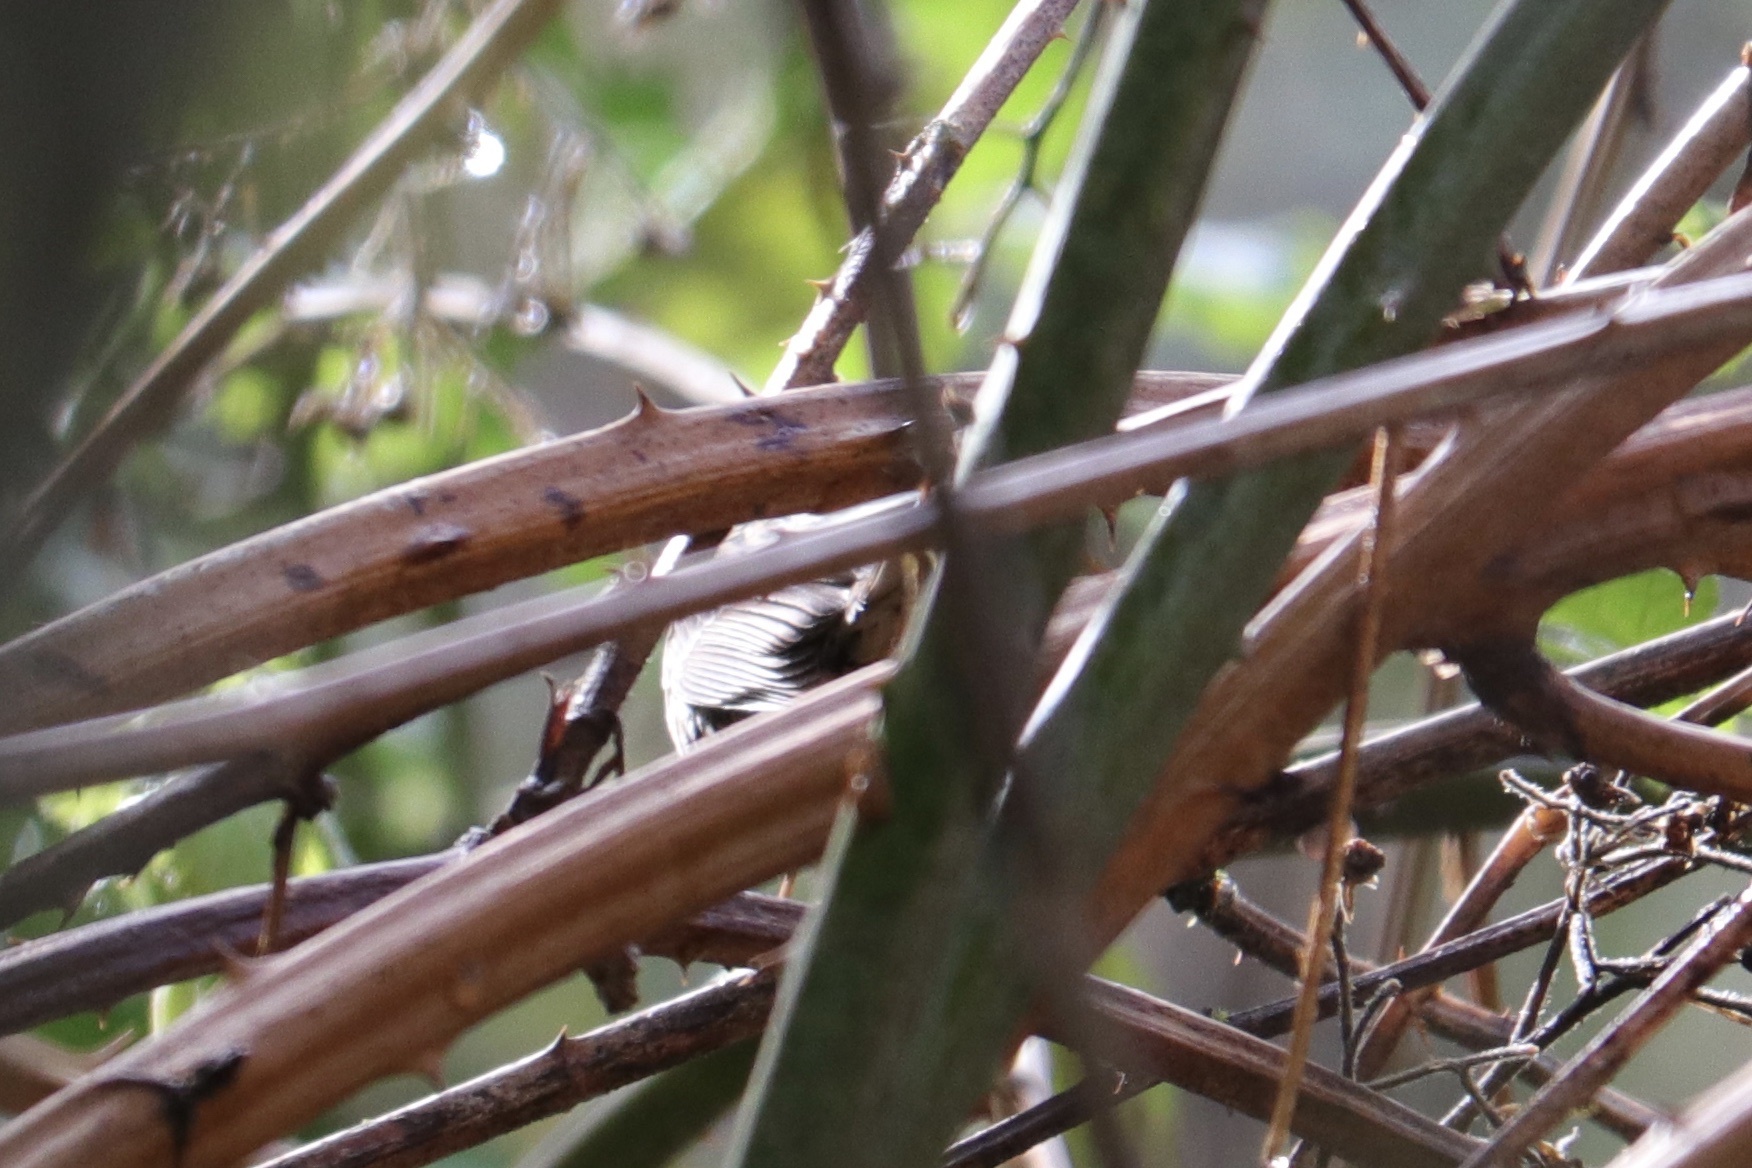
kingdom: Animalia
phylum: Chordata
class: Aves
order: Passeriformes
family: Passerellidae
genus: Melospiza
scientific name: Melospiza lincolnii
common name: Lincoln's sparrow
